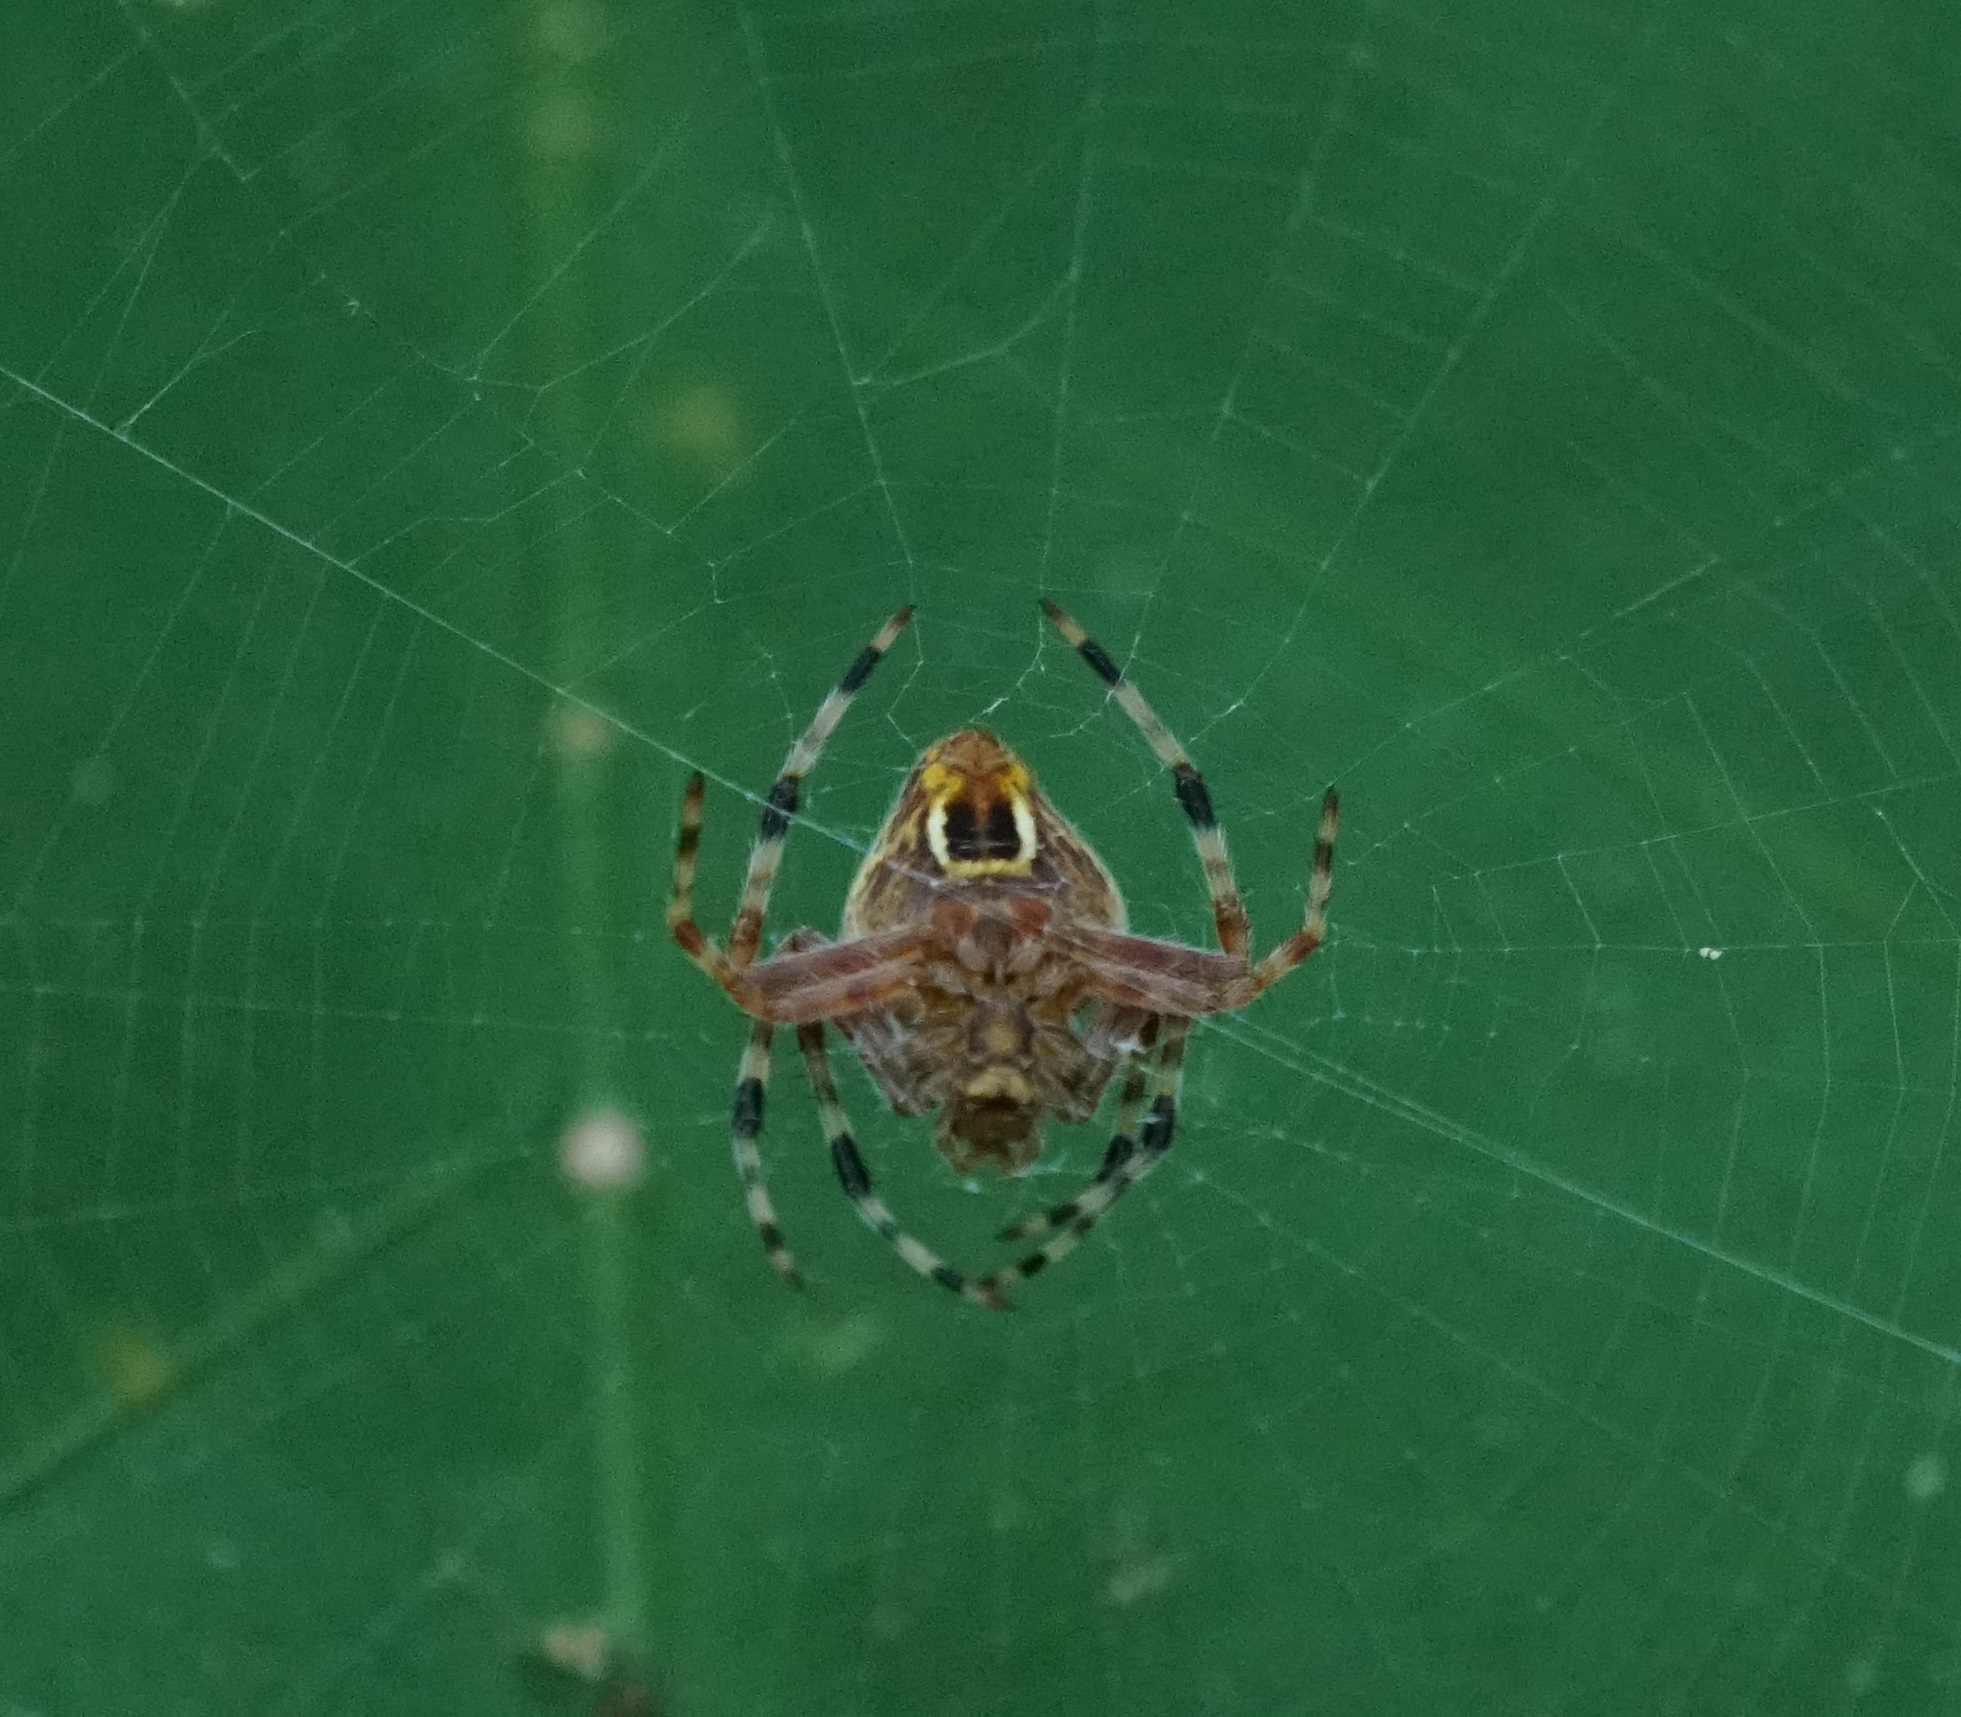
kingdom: Animalia
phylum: Arthropoda
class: Arachnida
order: Araneae
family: Araneidae
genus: Eriophora
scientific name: Eriophora nephiloides
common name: Orb weavers
